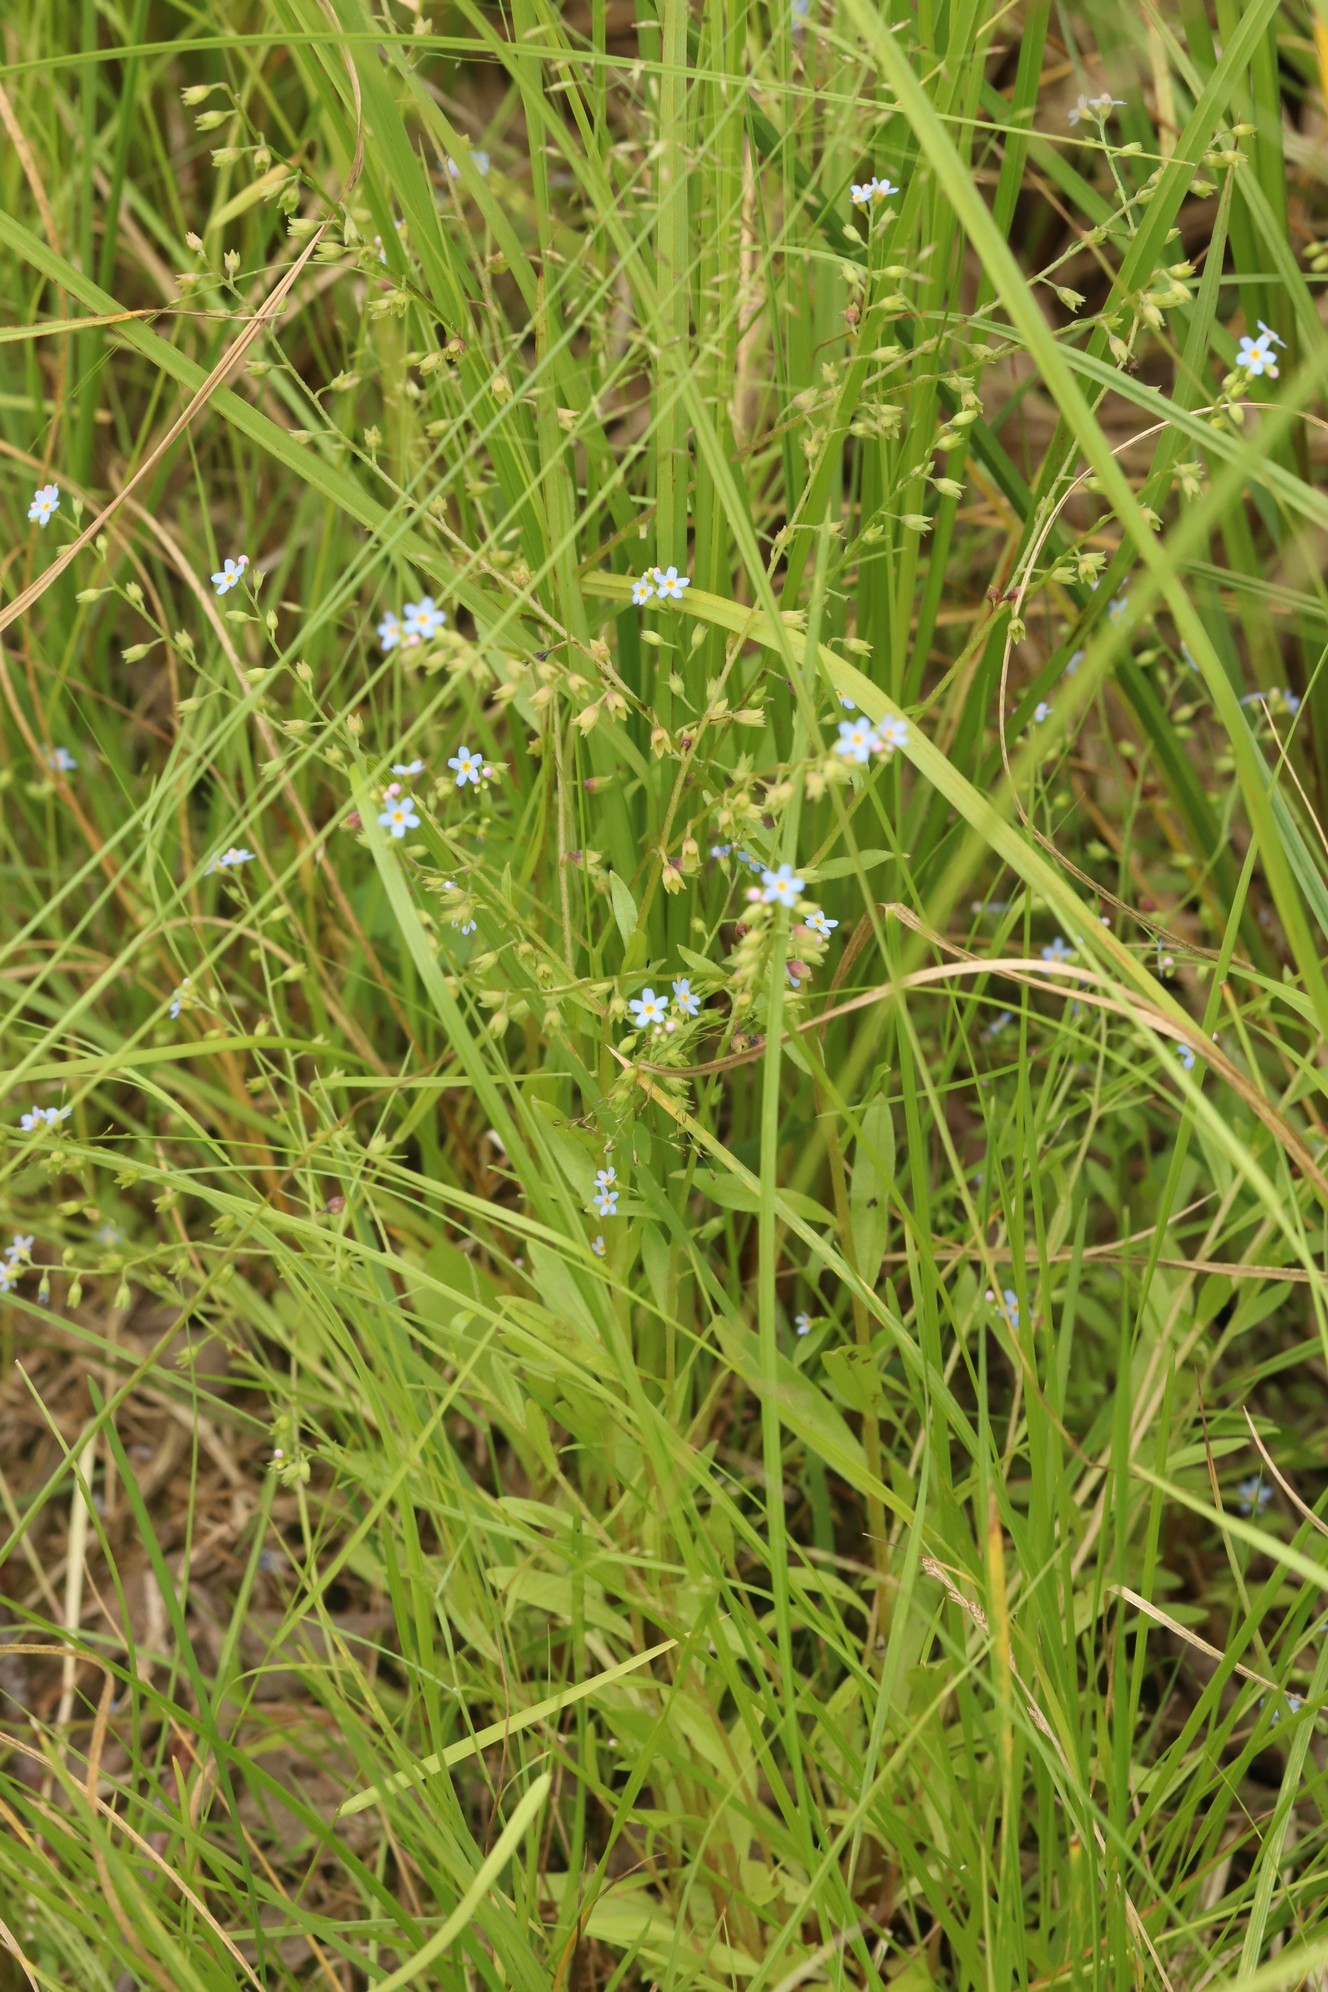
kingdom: Plantae
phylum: Tracheophyta
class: Magnoliopsida
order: Boraginales
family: Boraginaceae
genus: Myosotis
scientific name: Myosotis scorpioides
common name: Water forget-me-not
